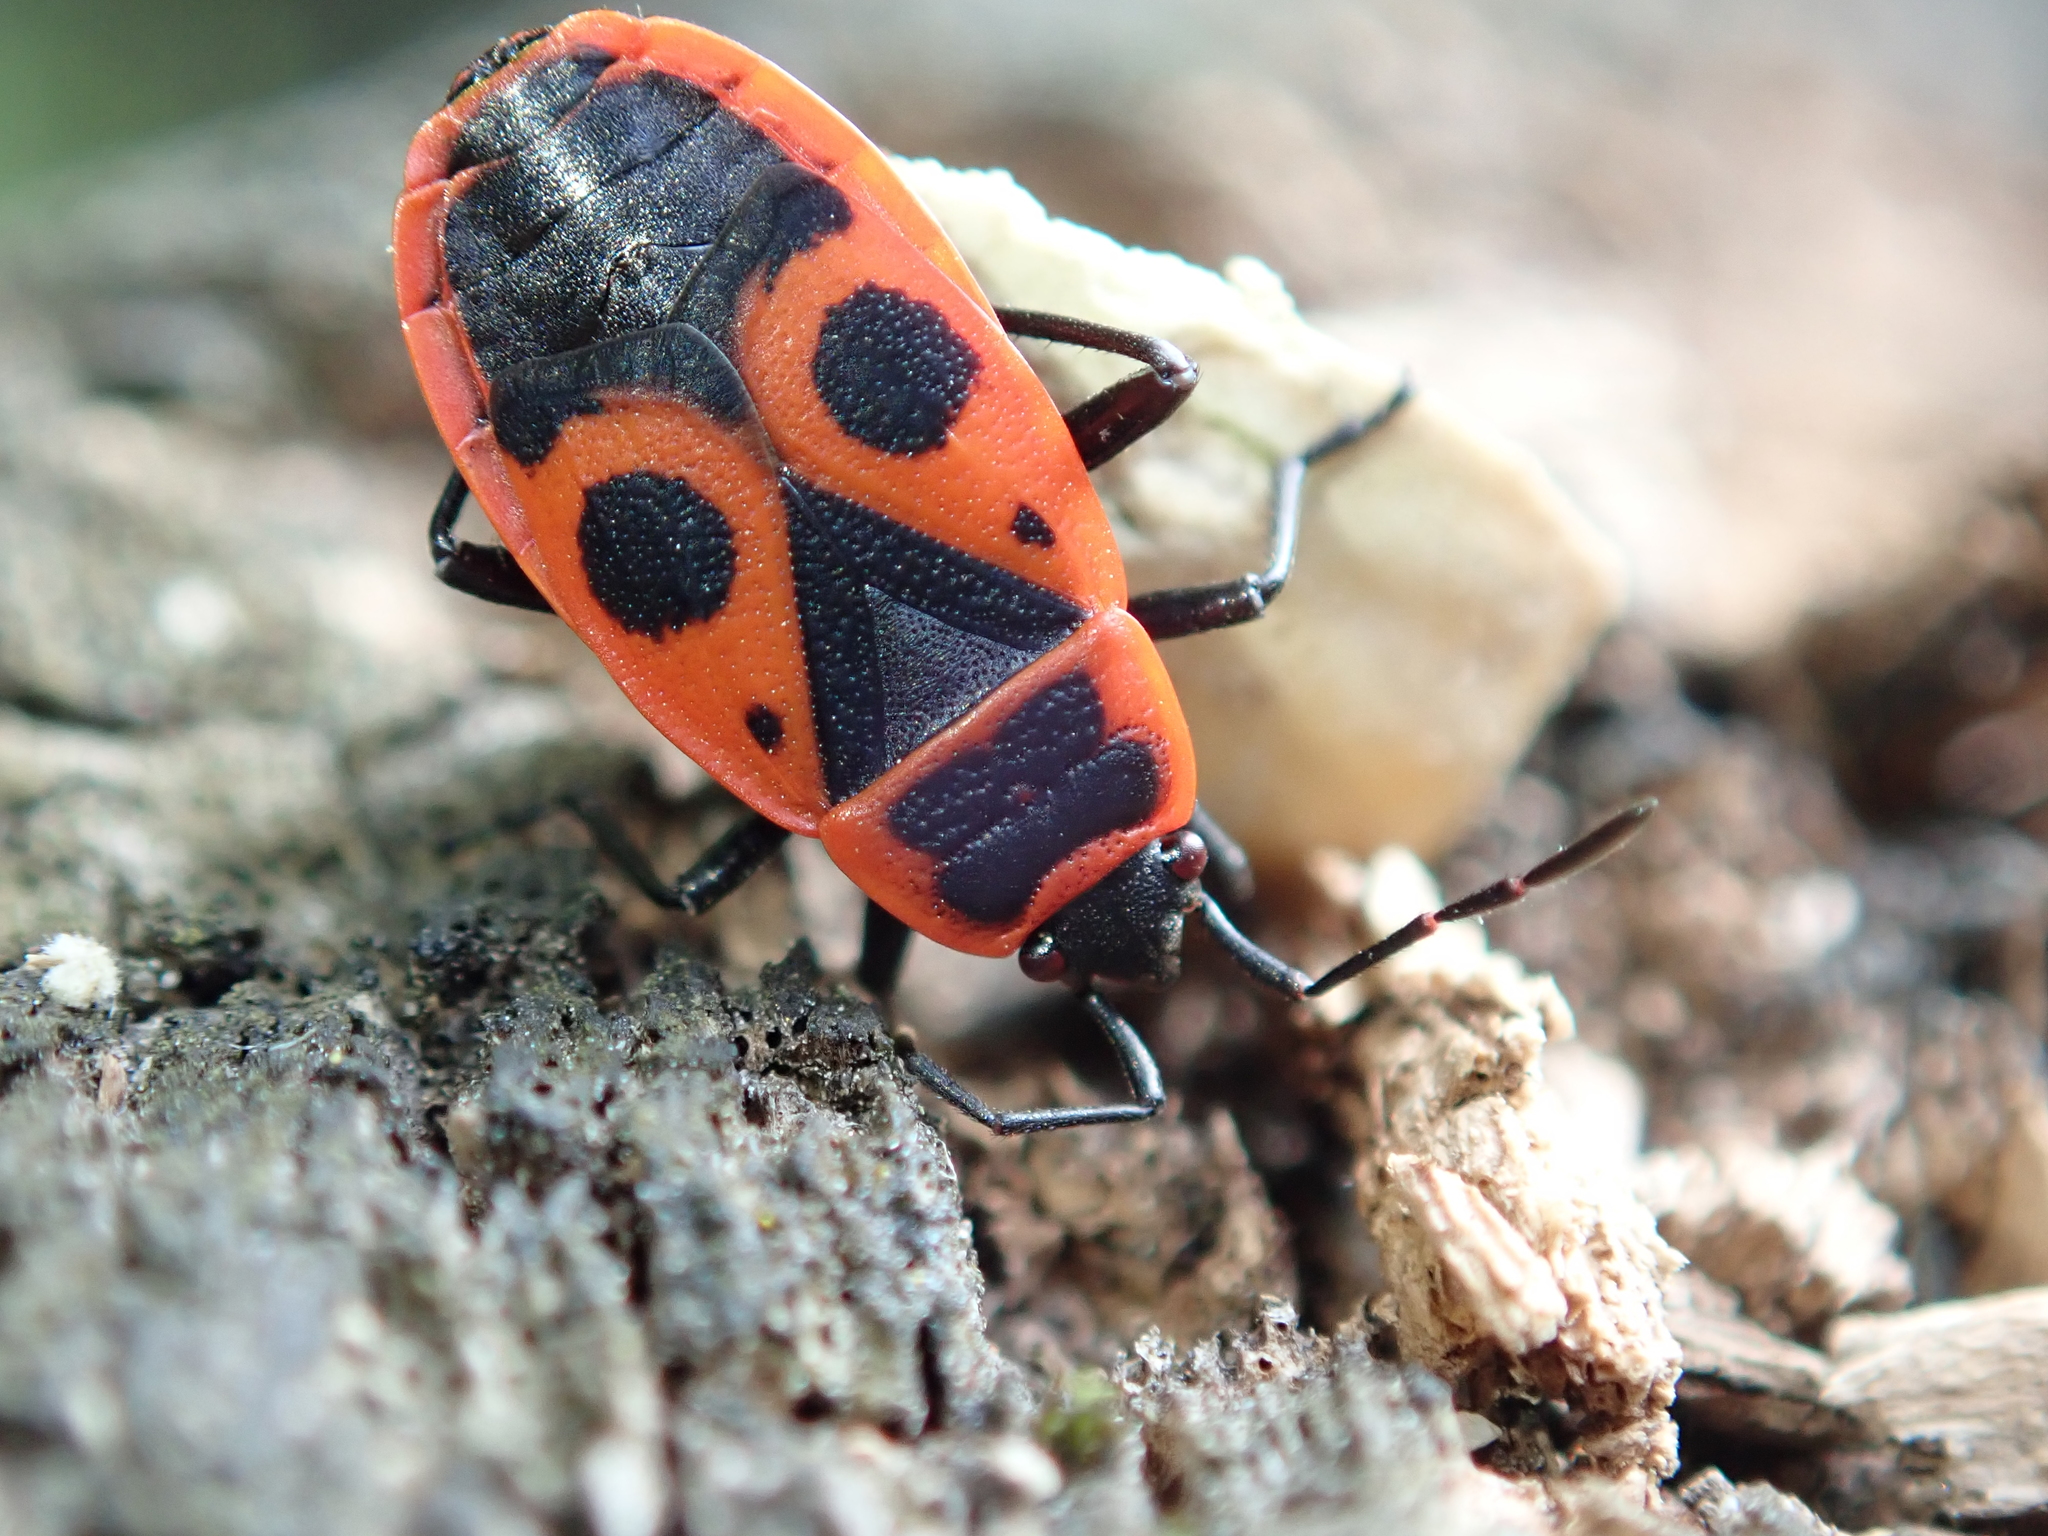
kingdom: Animalia
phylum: Arthropoda
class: Insecta
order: Hemiptera
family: Pyrrhocoridae
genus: Pyrrhocoris
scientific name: Pyrrhocoris apterus
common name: Firebug
